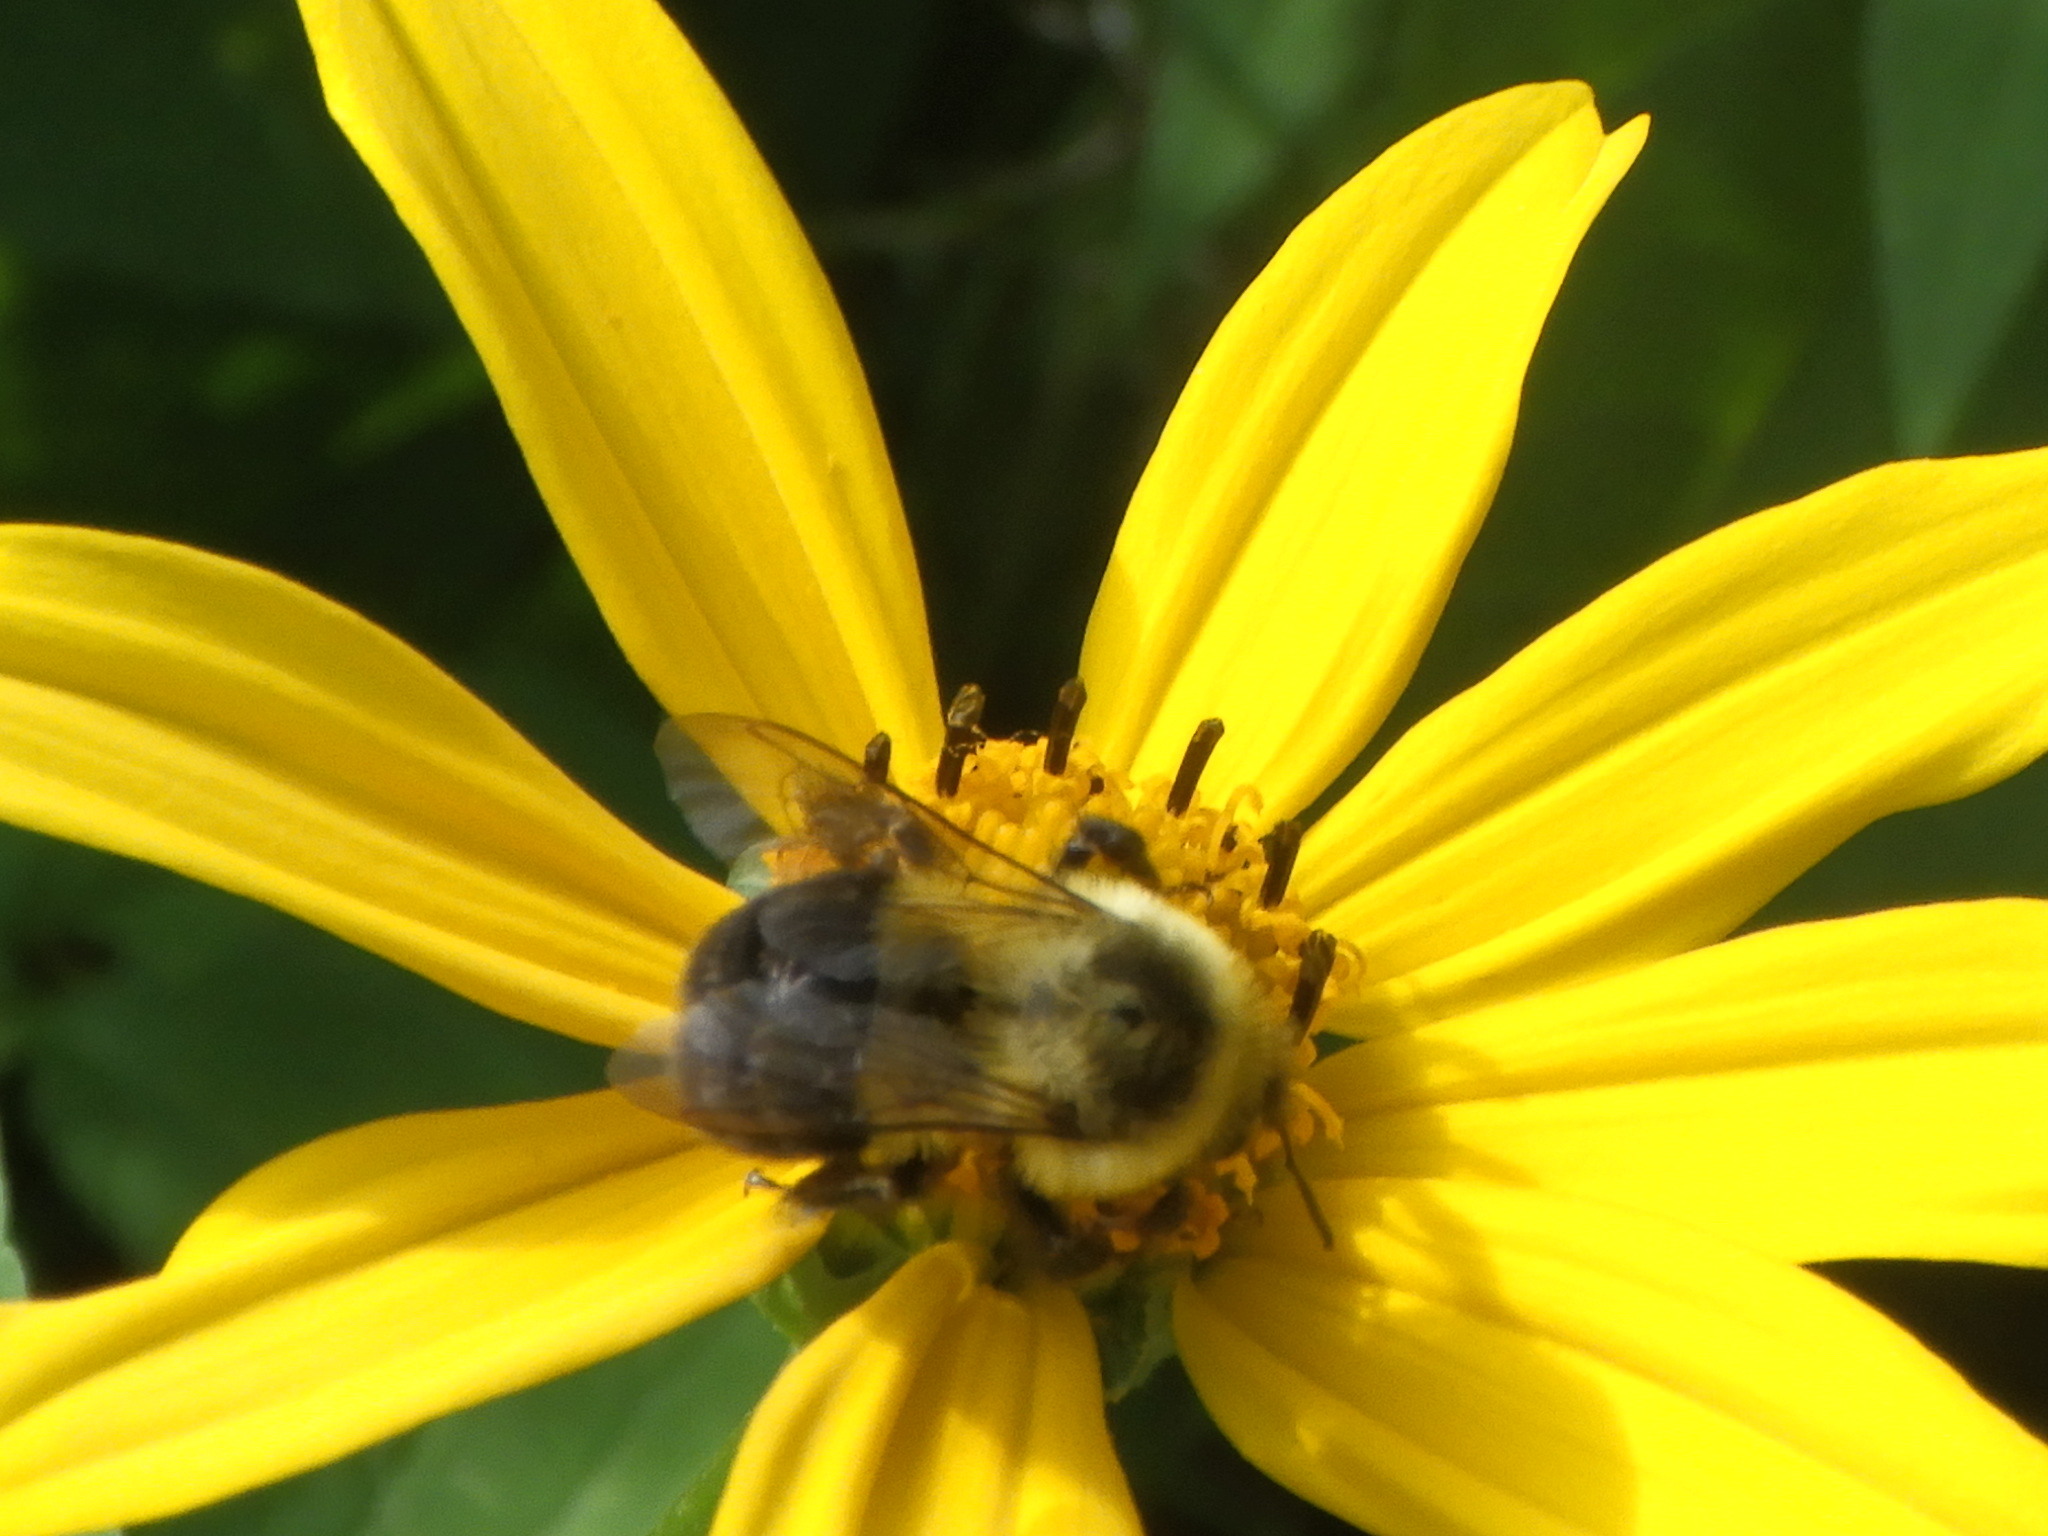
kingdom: Animalia
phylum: Arthropoda
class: Insecta
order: Hymenoptera
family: Apidae
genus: Bombus
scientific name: Bombus impatiens
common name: Common eastern bumble bee
